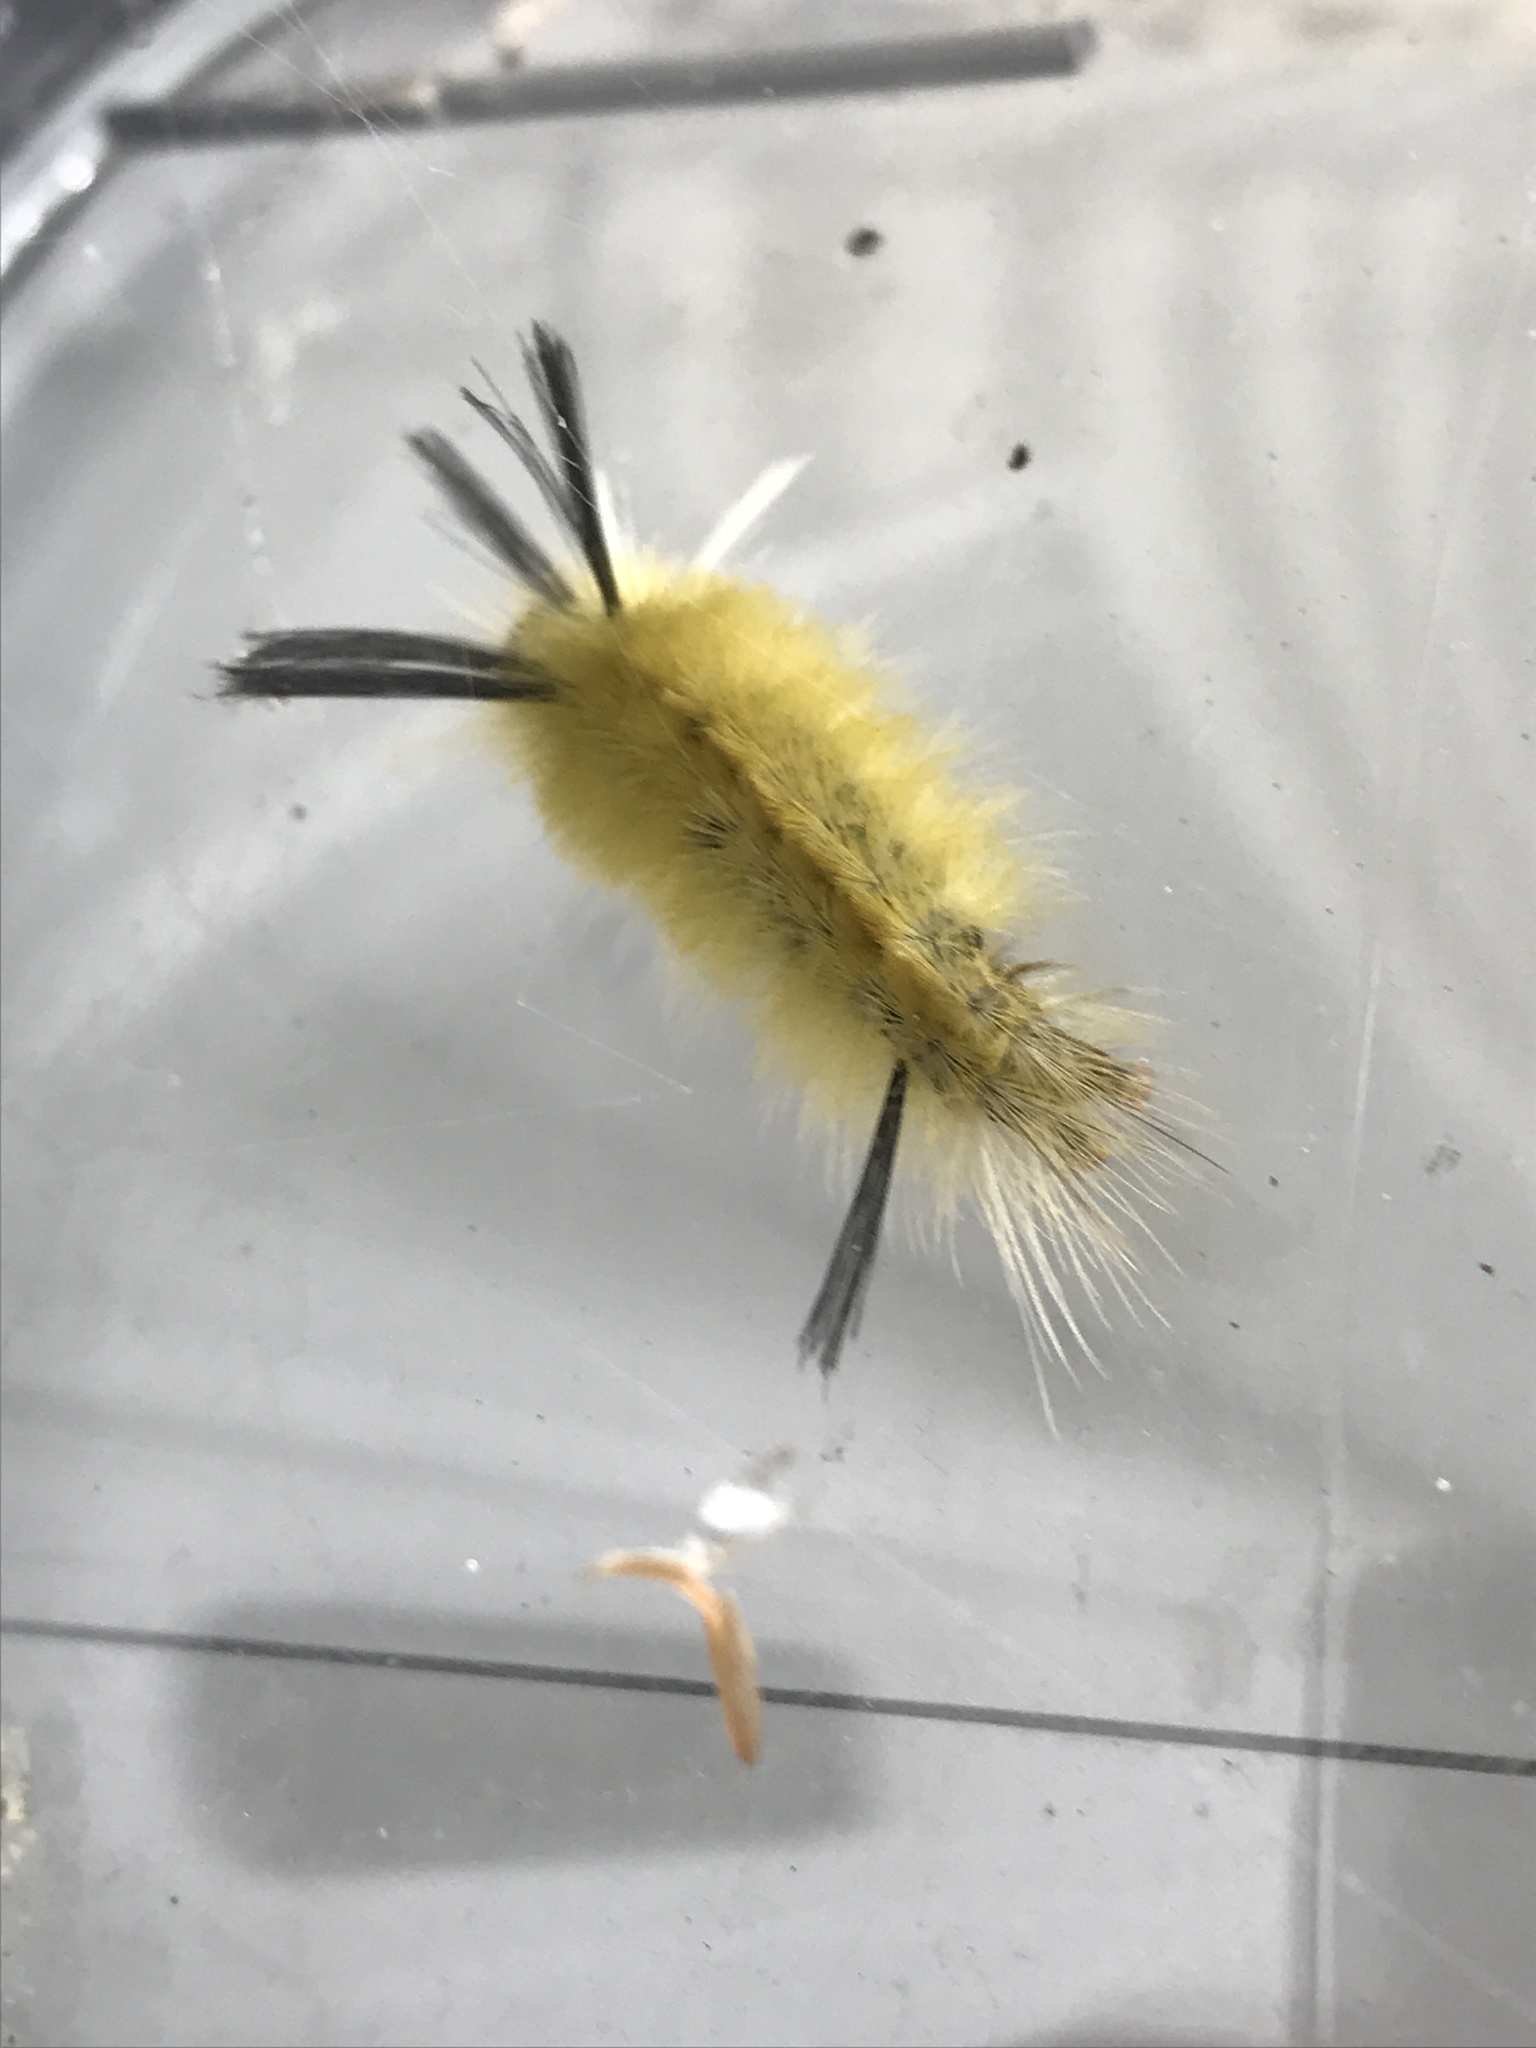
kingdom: Animalia
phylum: Arthropoda
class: Insecta
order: Lepidoptera
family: Erebidae
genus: Halysidota
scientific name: Halysidota tessellaris
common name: Banded tussock moth
